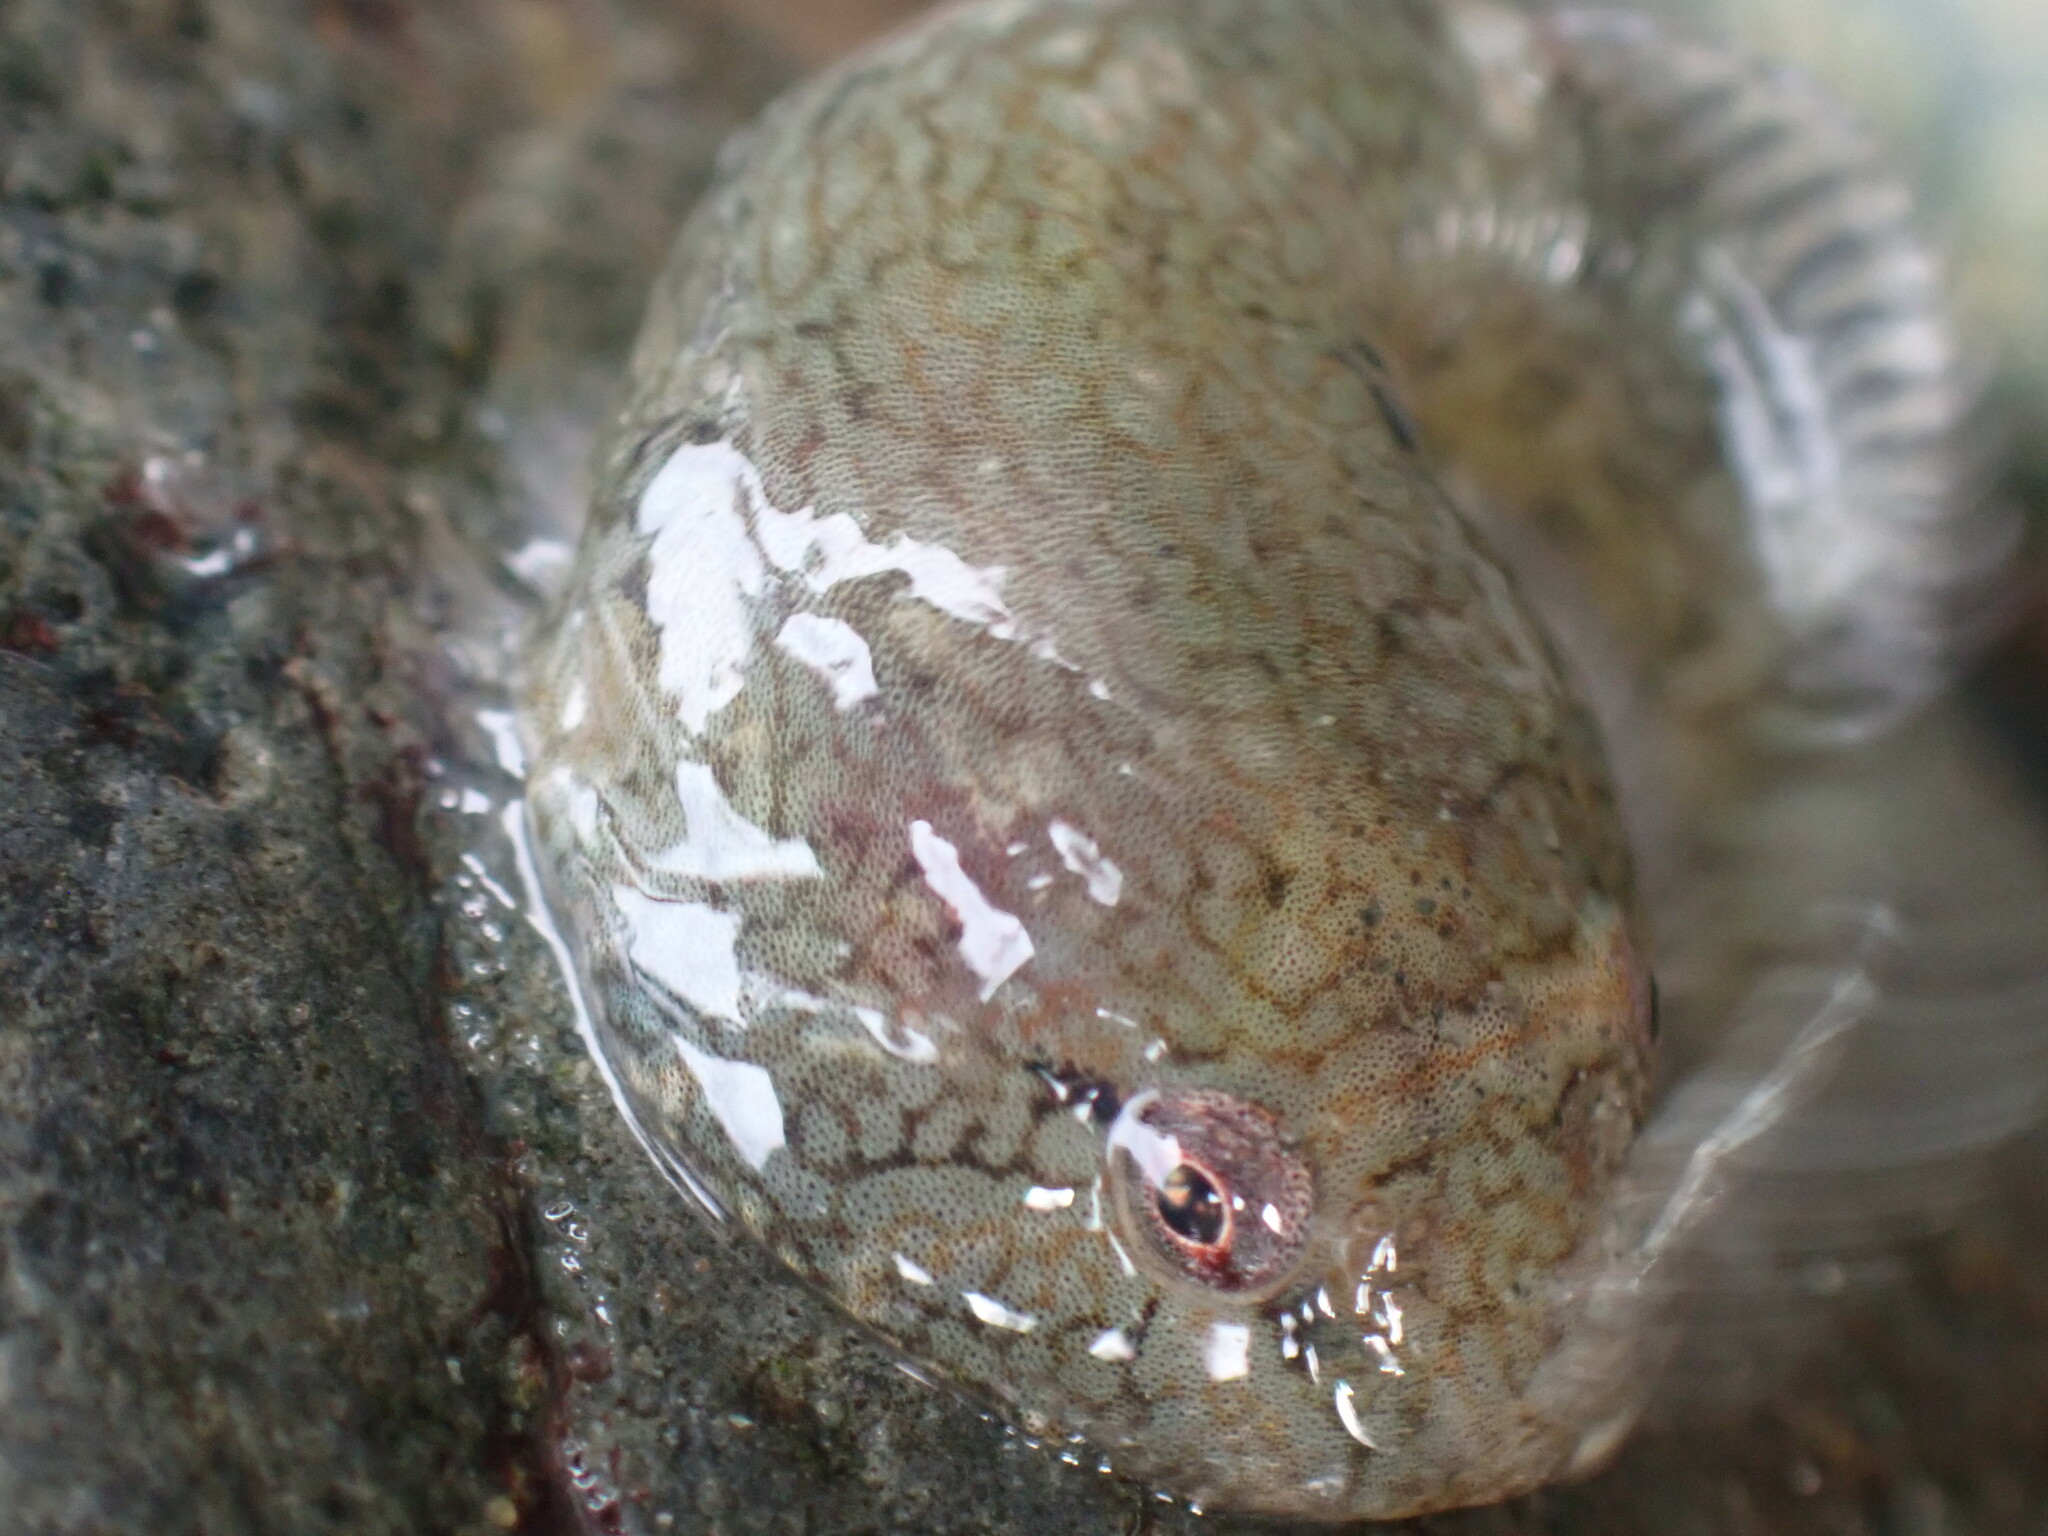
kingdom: Animalia
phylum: Chordata
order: Gobiesociformes
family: Gobiesocidae
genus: Gobiesox
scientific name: Gobiesox maeandricus
